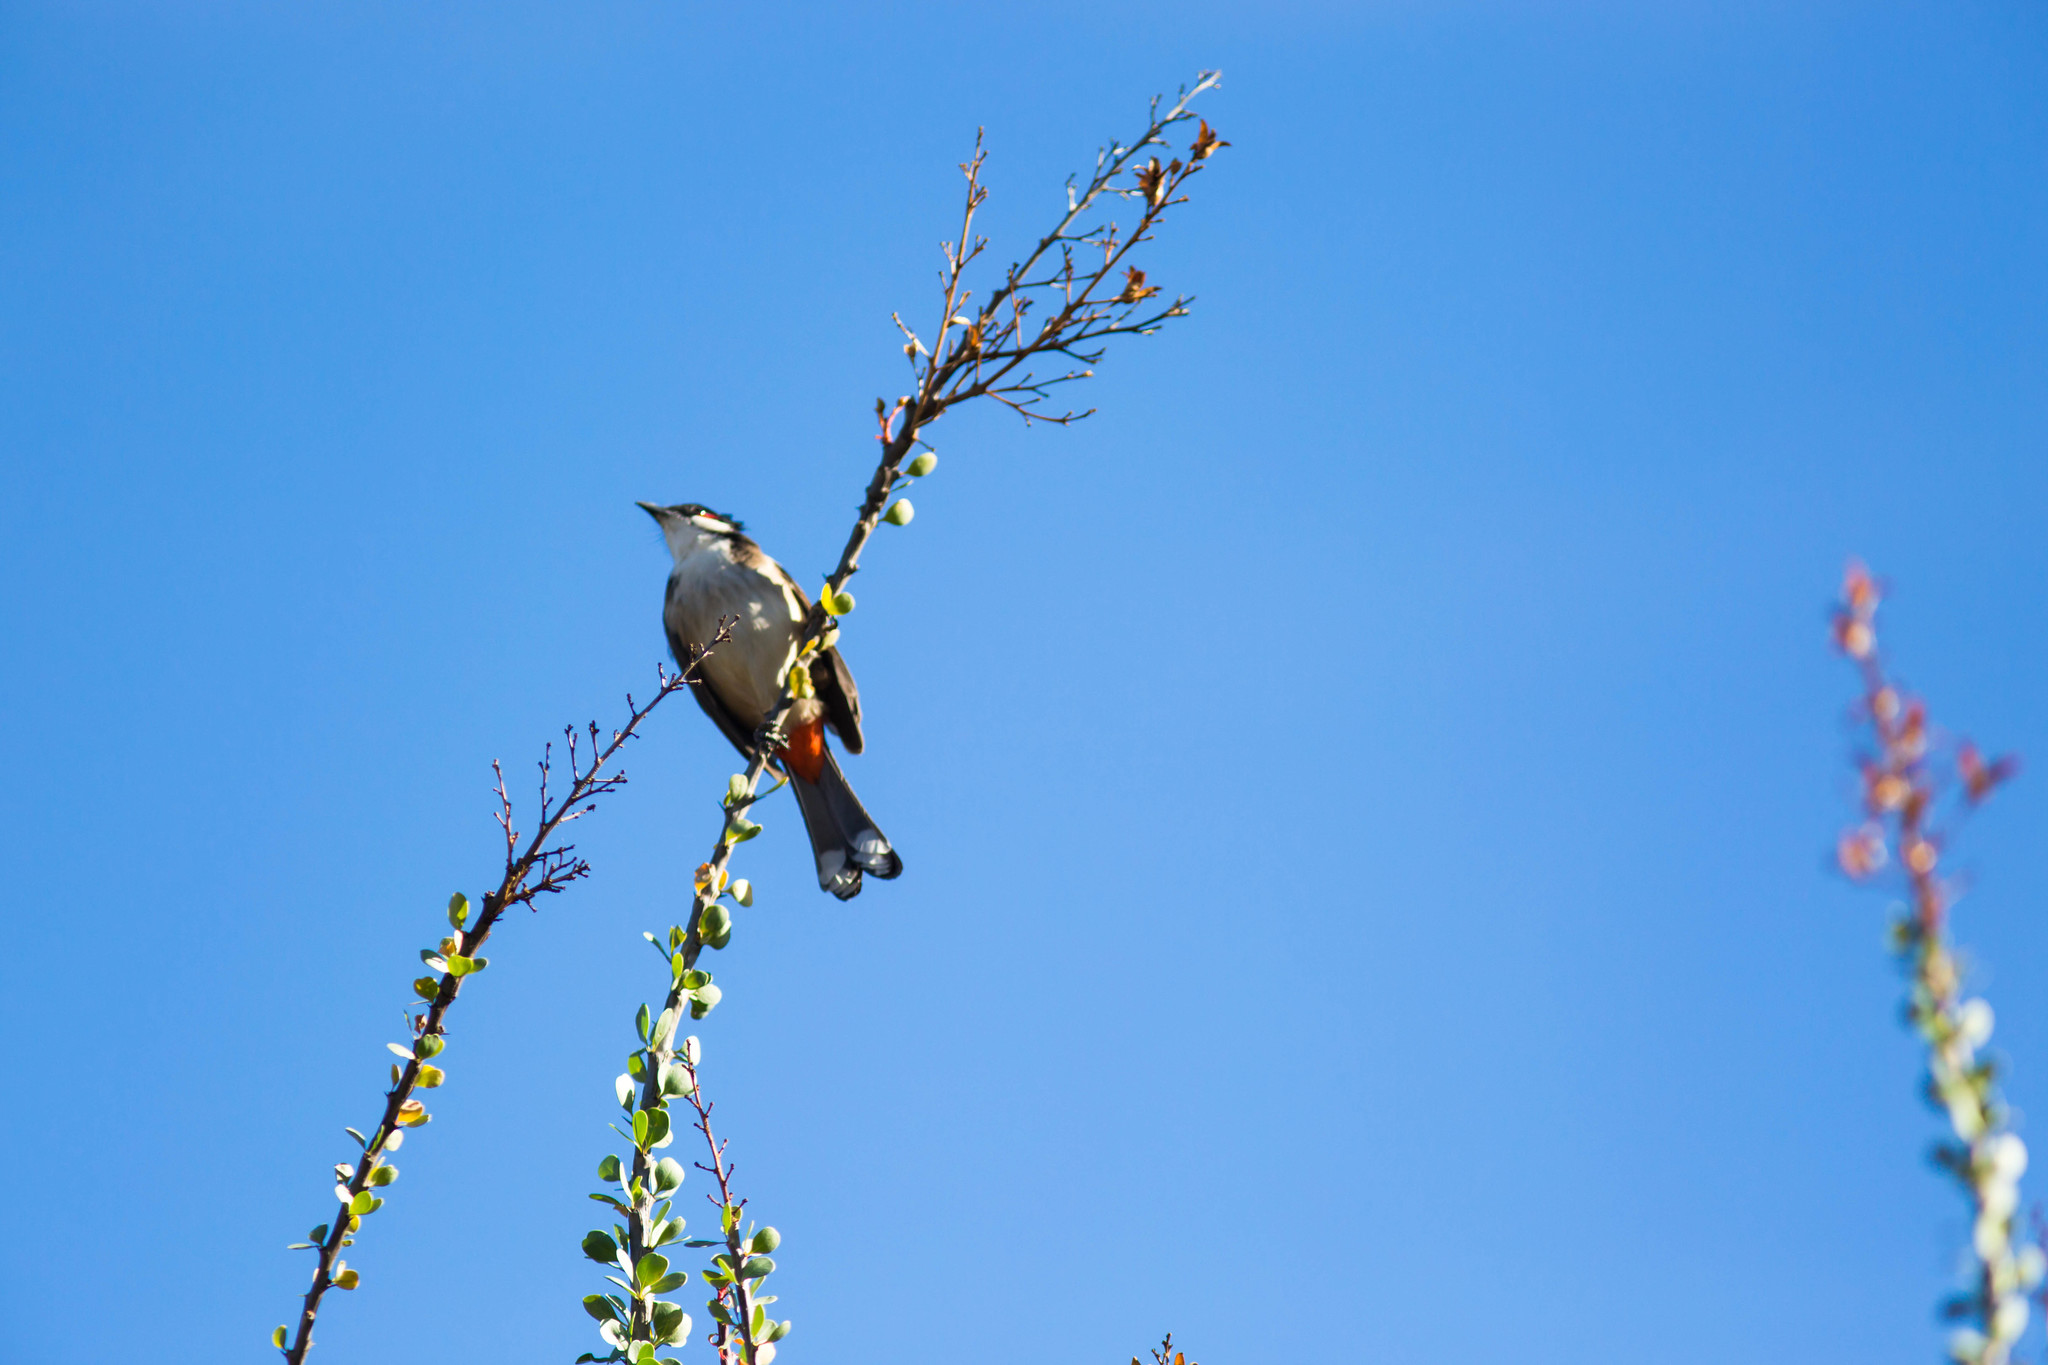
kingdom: Animalia
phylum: Chordata
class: Aves
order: Passeriformes
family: Pycnonotidae
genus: Pycnonotus
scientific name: Pycnonotus jocosus
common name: Red-whiskered bulbul
